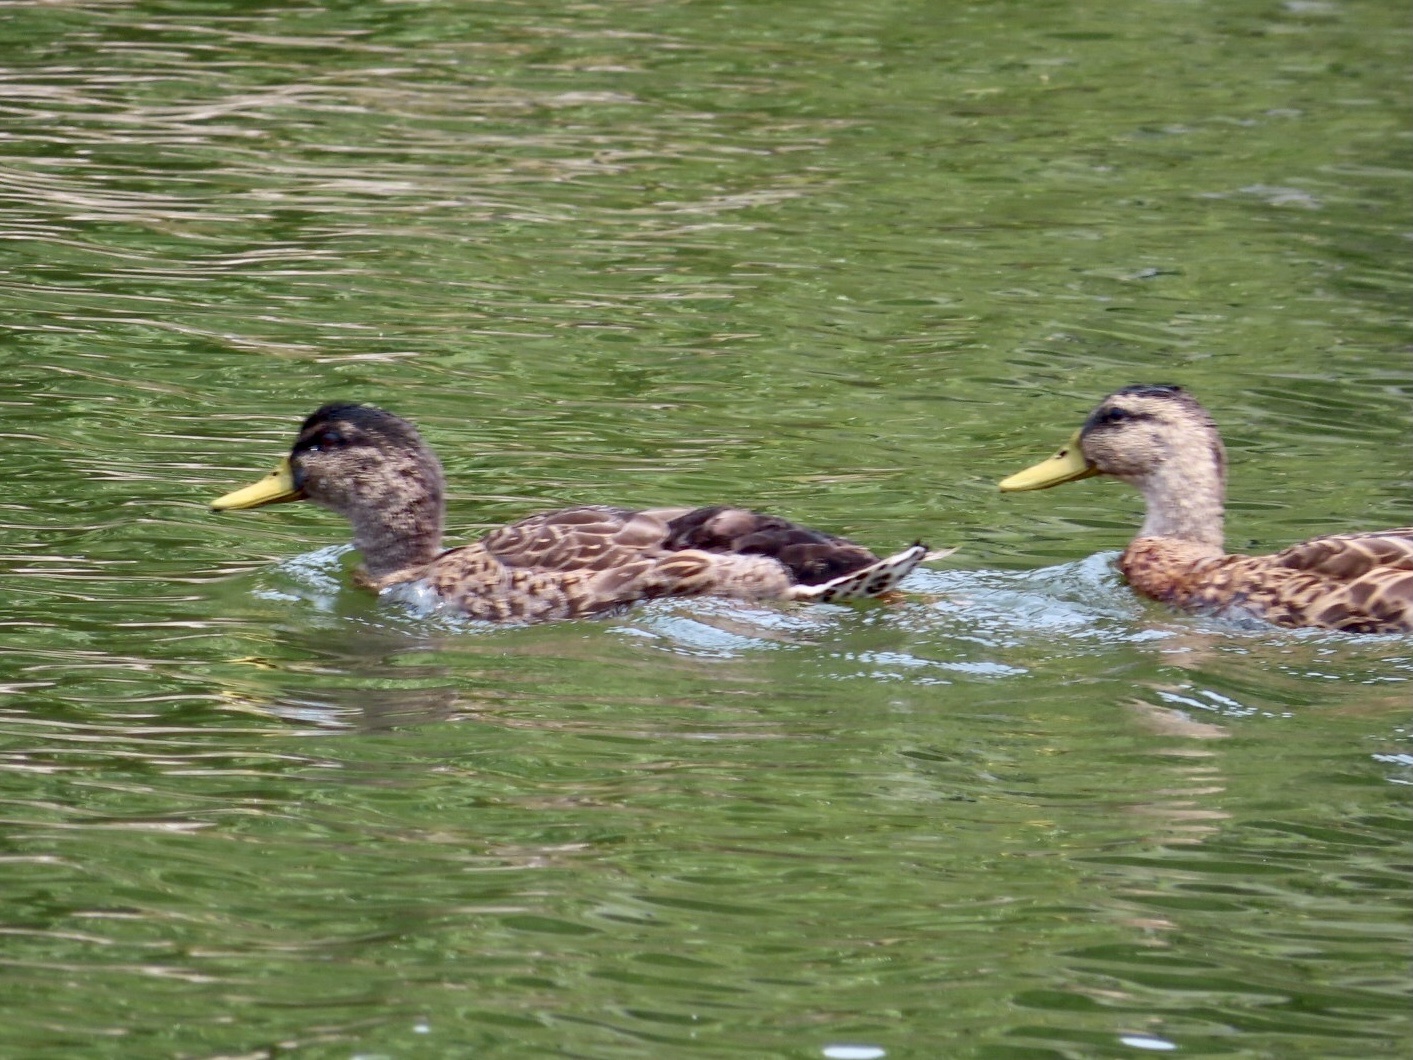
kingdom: Animalia
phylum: Chordata
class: Aves
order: Anseriformes
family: Anatidae
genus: Anas
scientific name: Anas platyrhynchos
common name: Mallard
